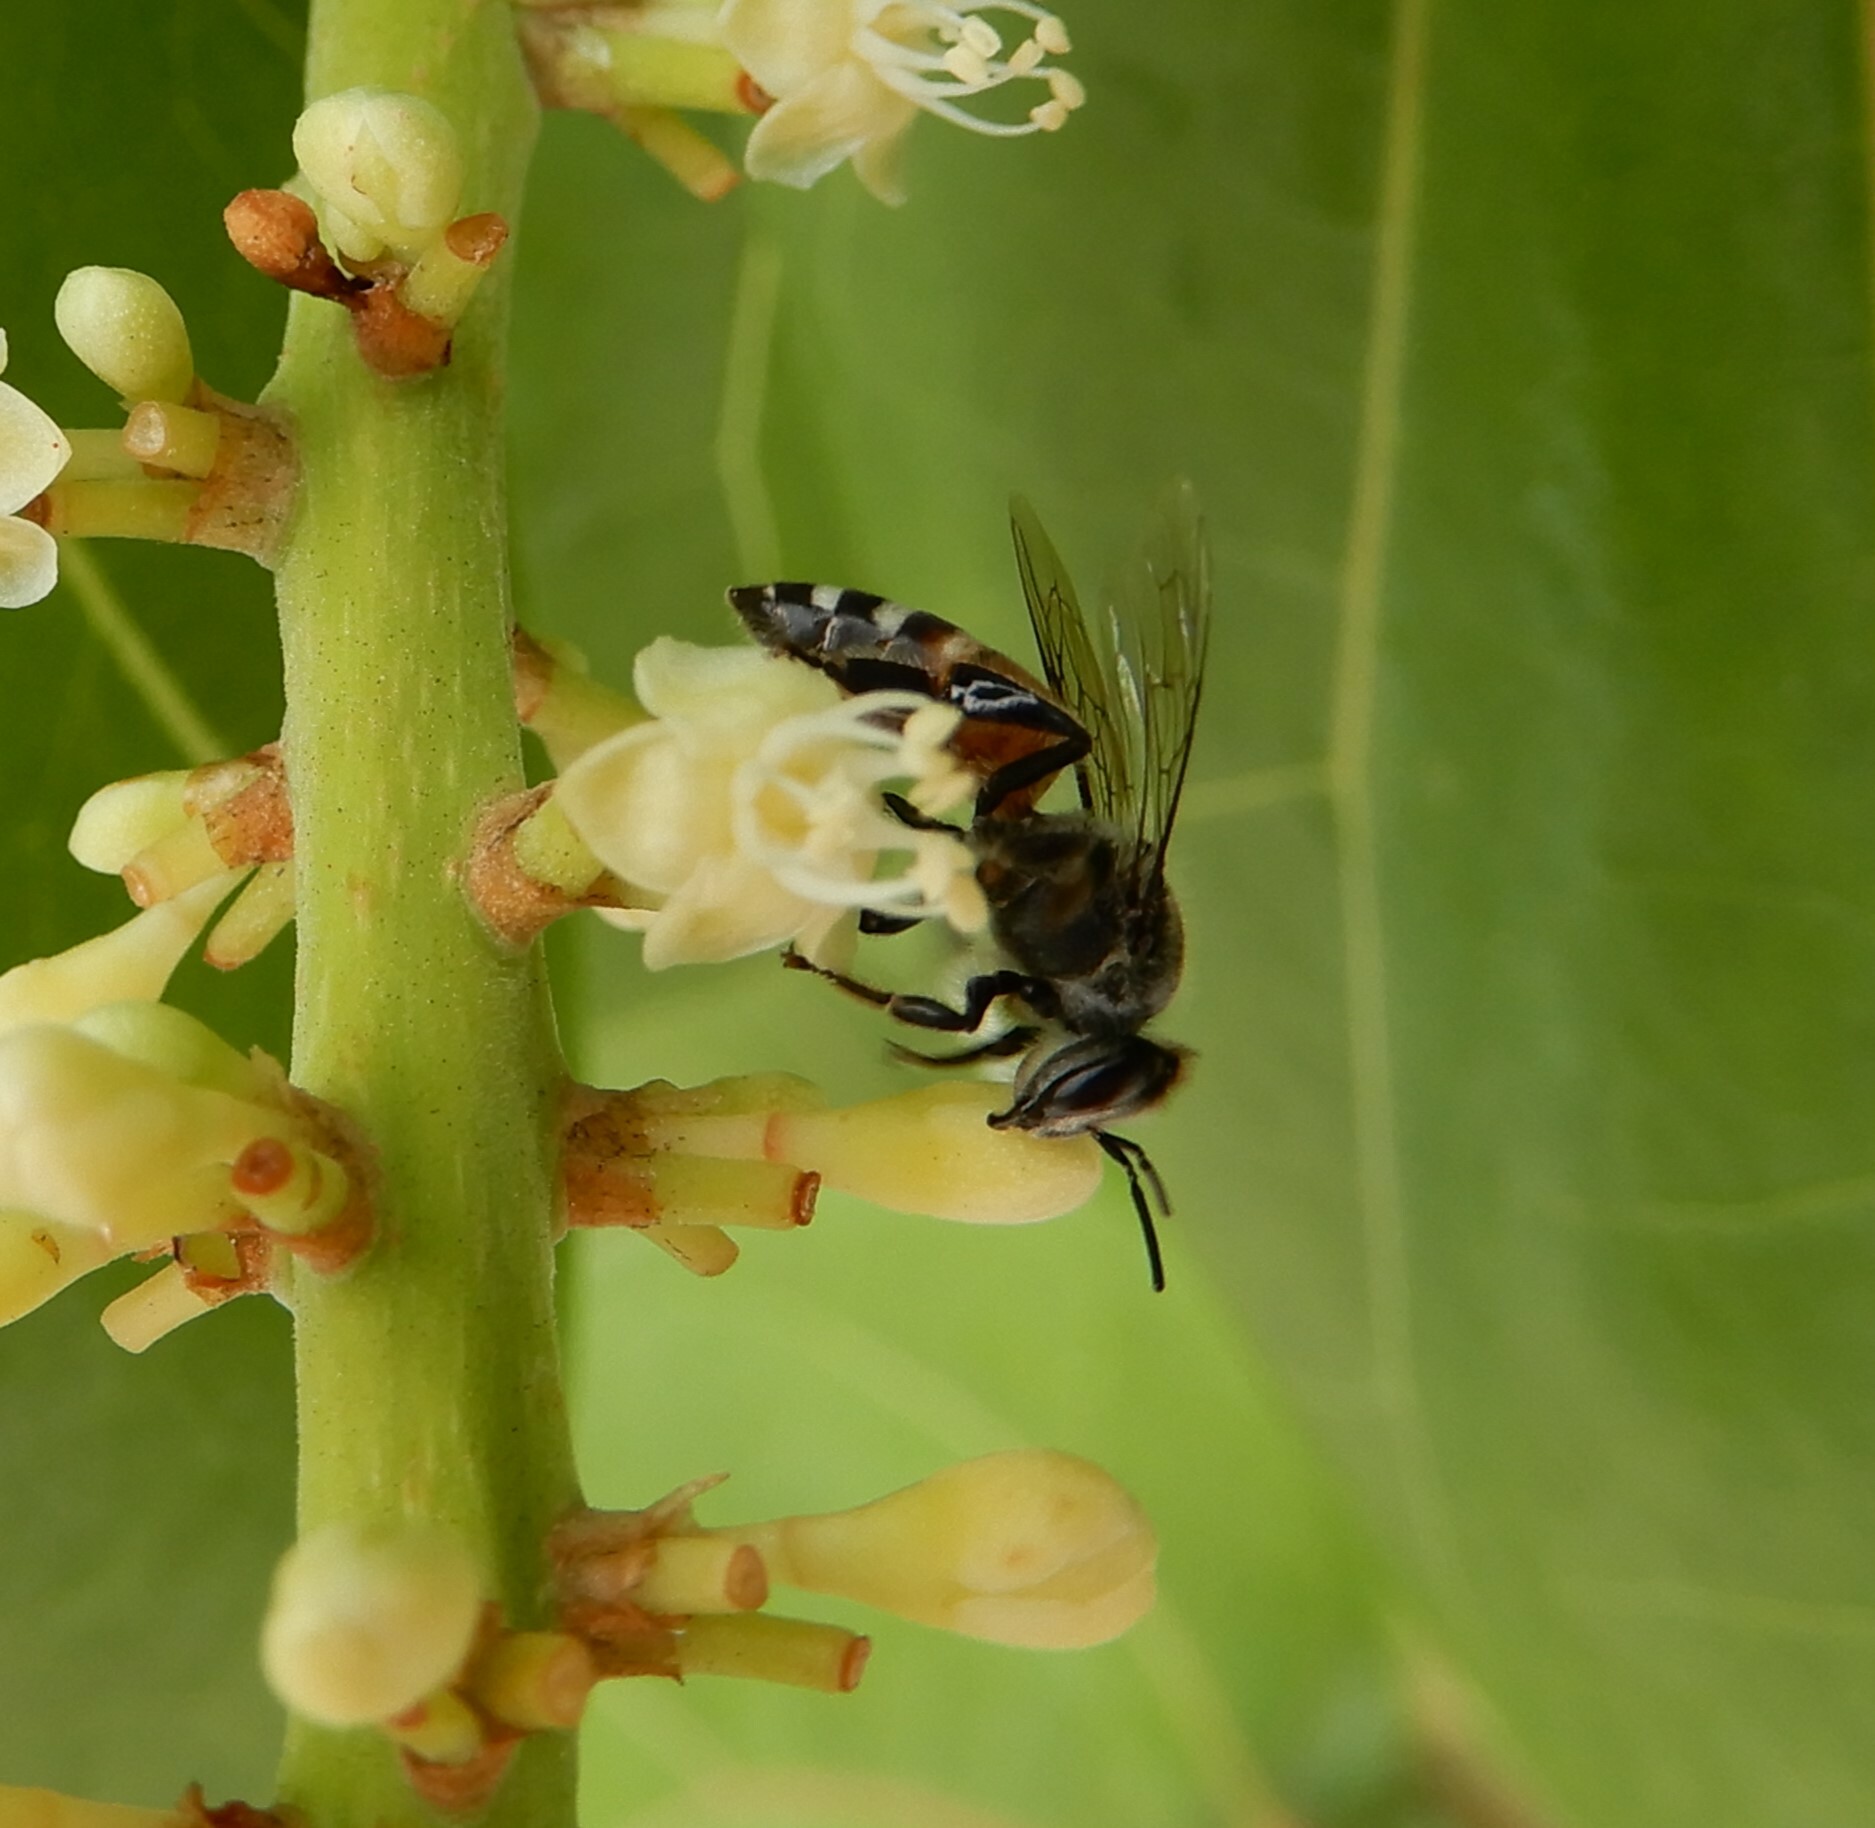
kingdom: Animalia
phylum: Arthropoda
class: Insecta
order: Hymenoptera
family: Apidae
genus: Apis
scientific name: Apis florea
